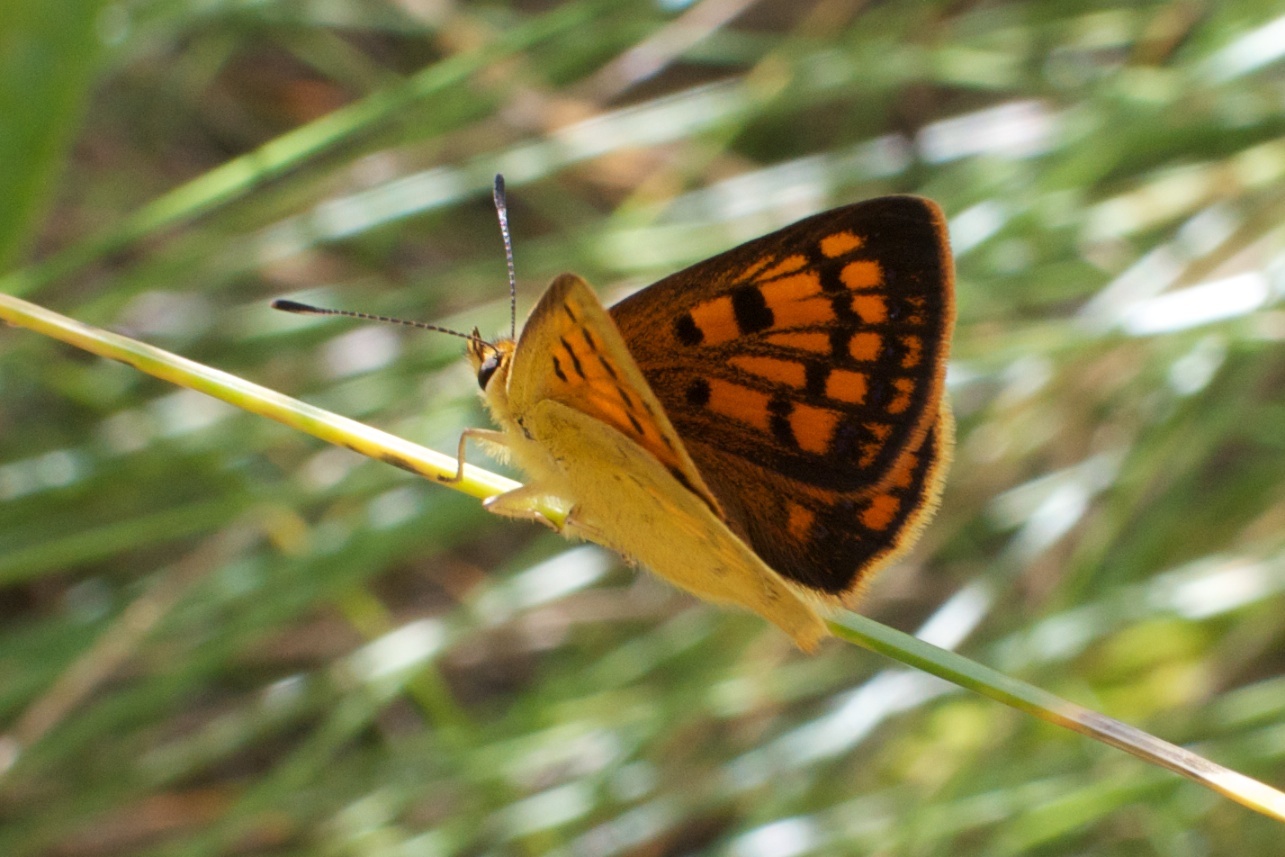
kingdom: Animalia
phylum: Arthropoda
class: Insecta
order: Lepidoptera
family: Lycaenidae
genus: Lycaena
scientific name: Lycaena salustius
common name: North island coastal copper
